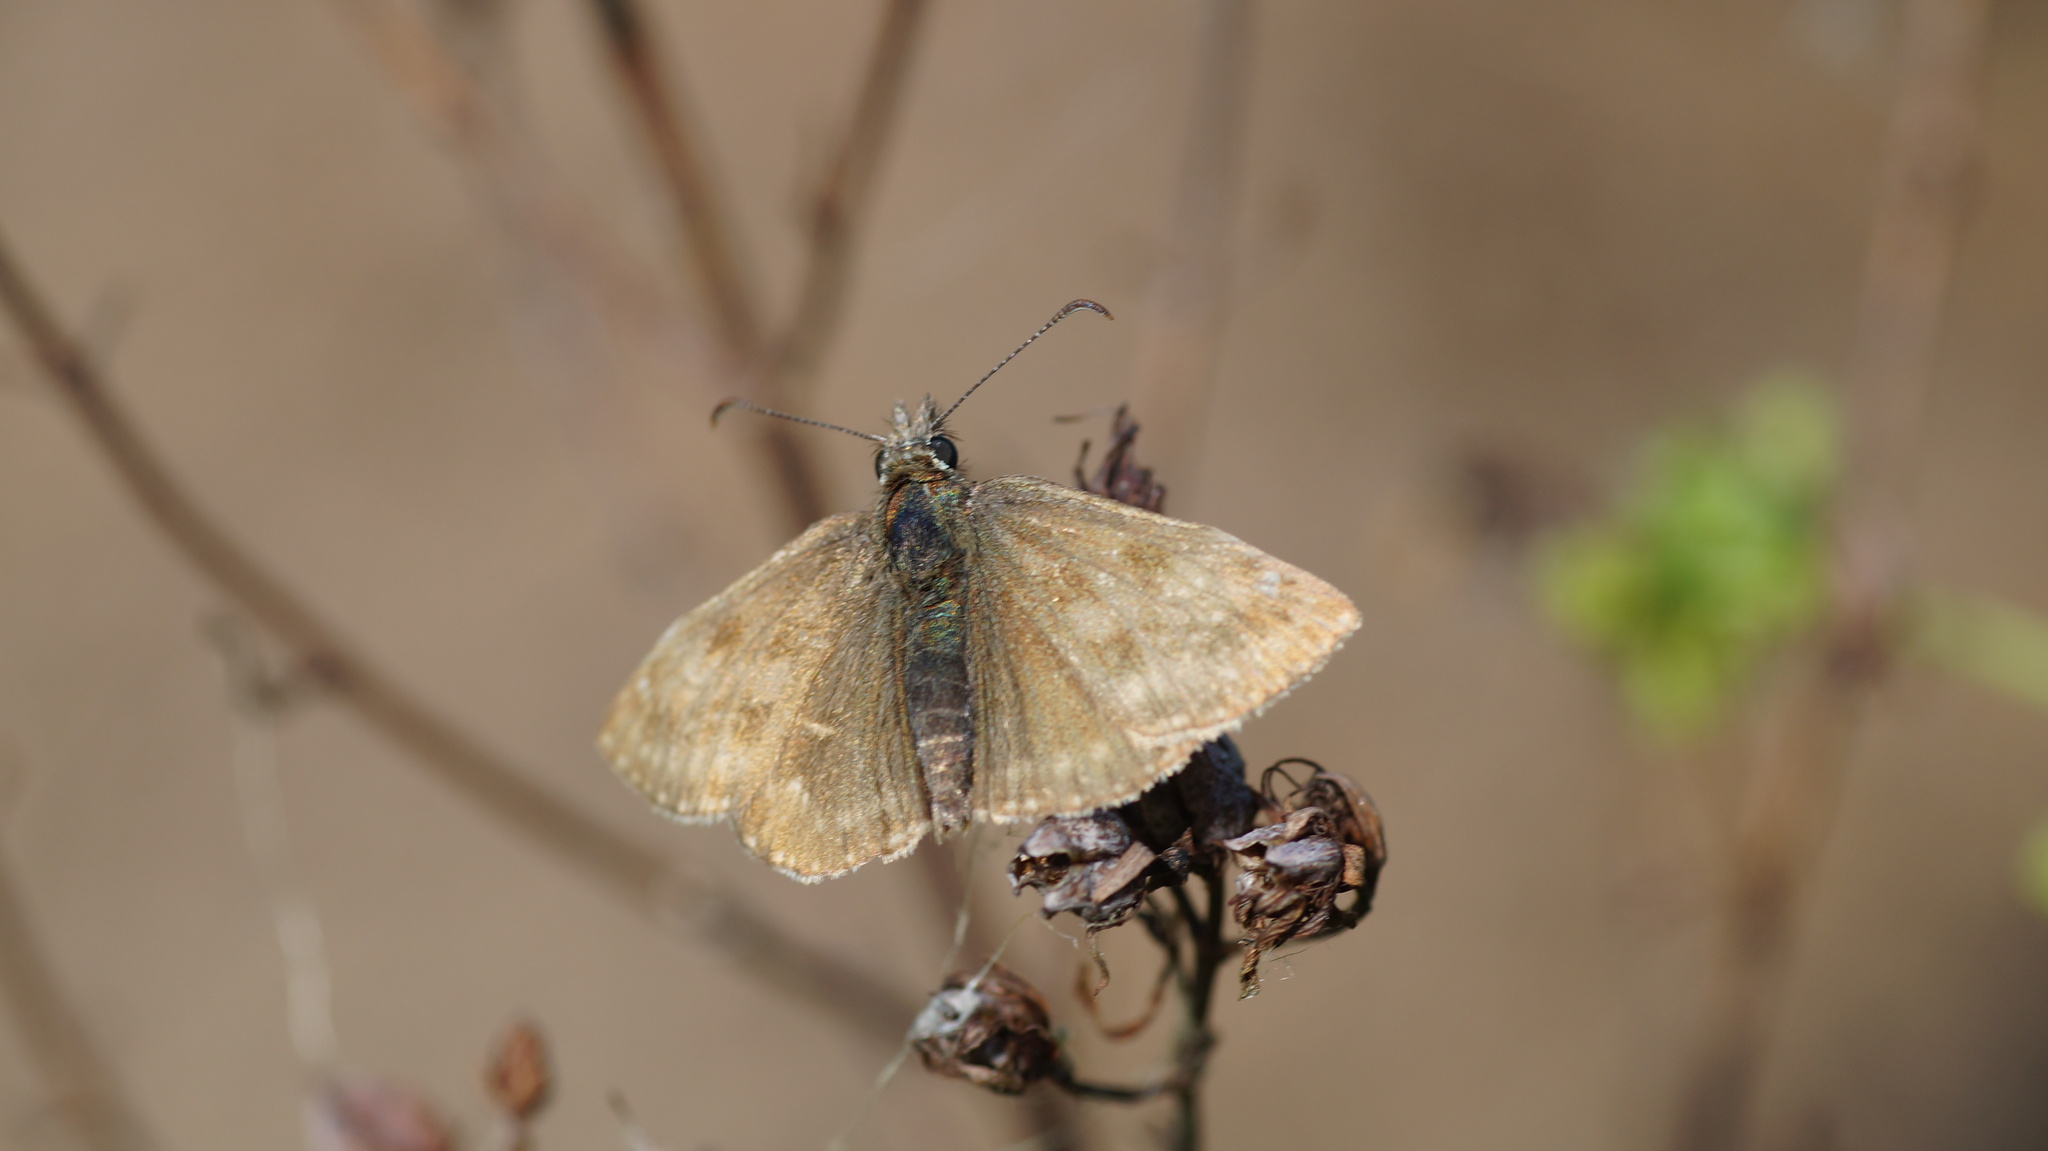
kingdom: Animalia
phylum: Arthropoda
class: Insecta
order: Lepidoptera
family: Hesperiidae
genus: Erynnis
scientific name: Erynnis tages
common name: Dingy skipper
